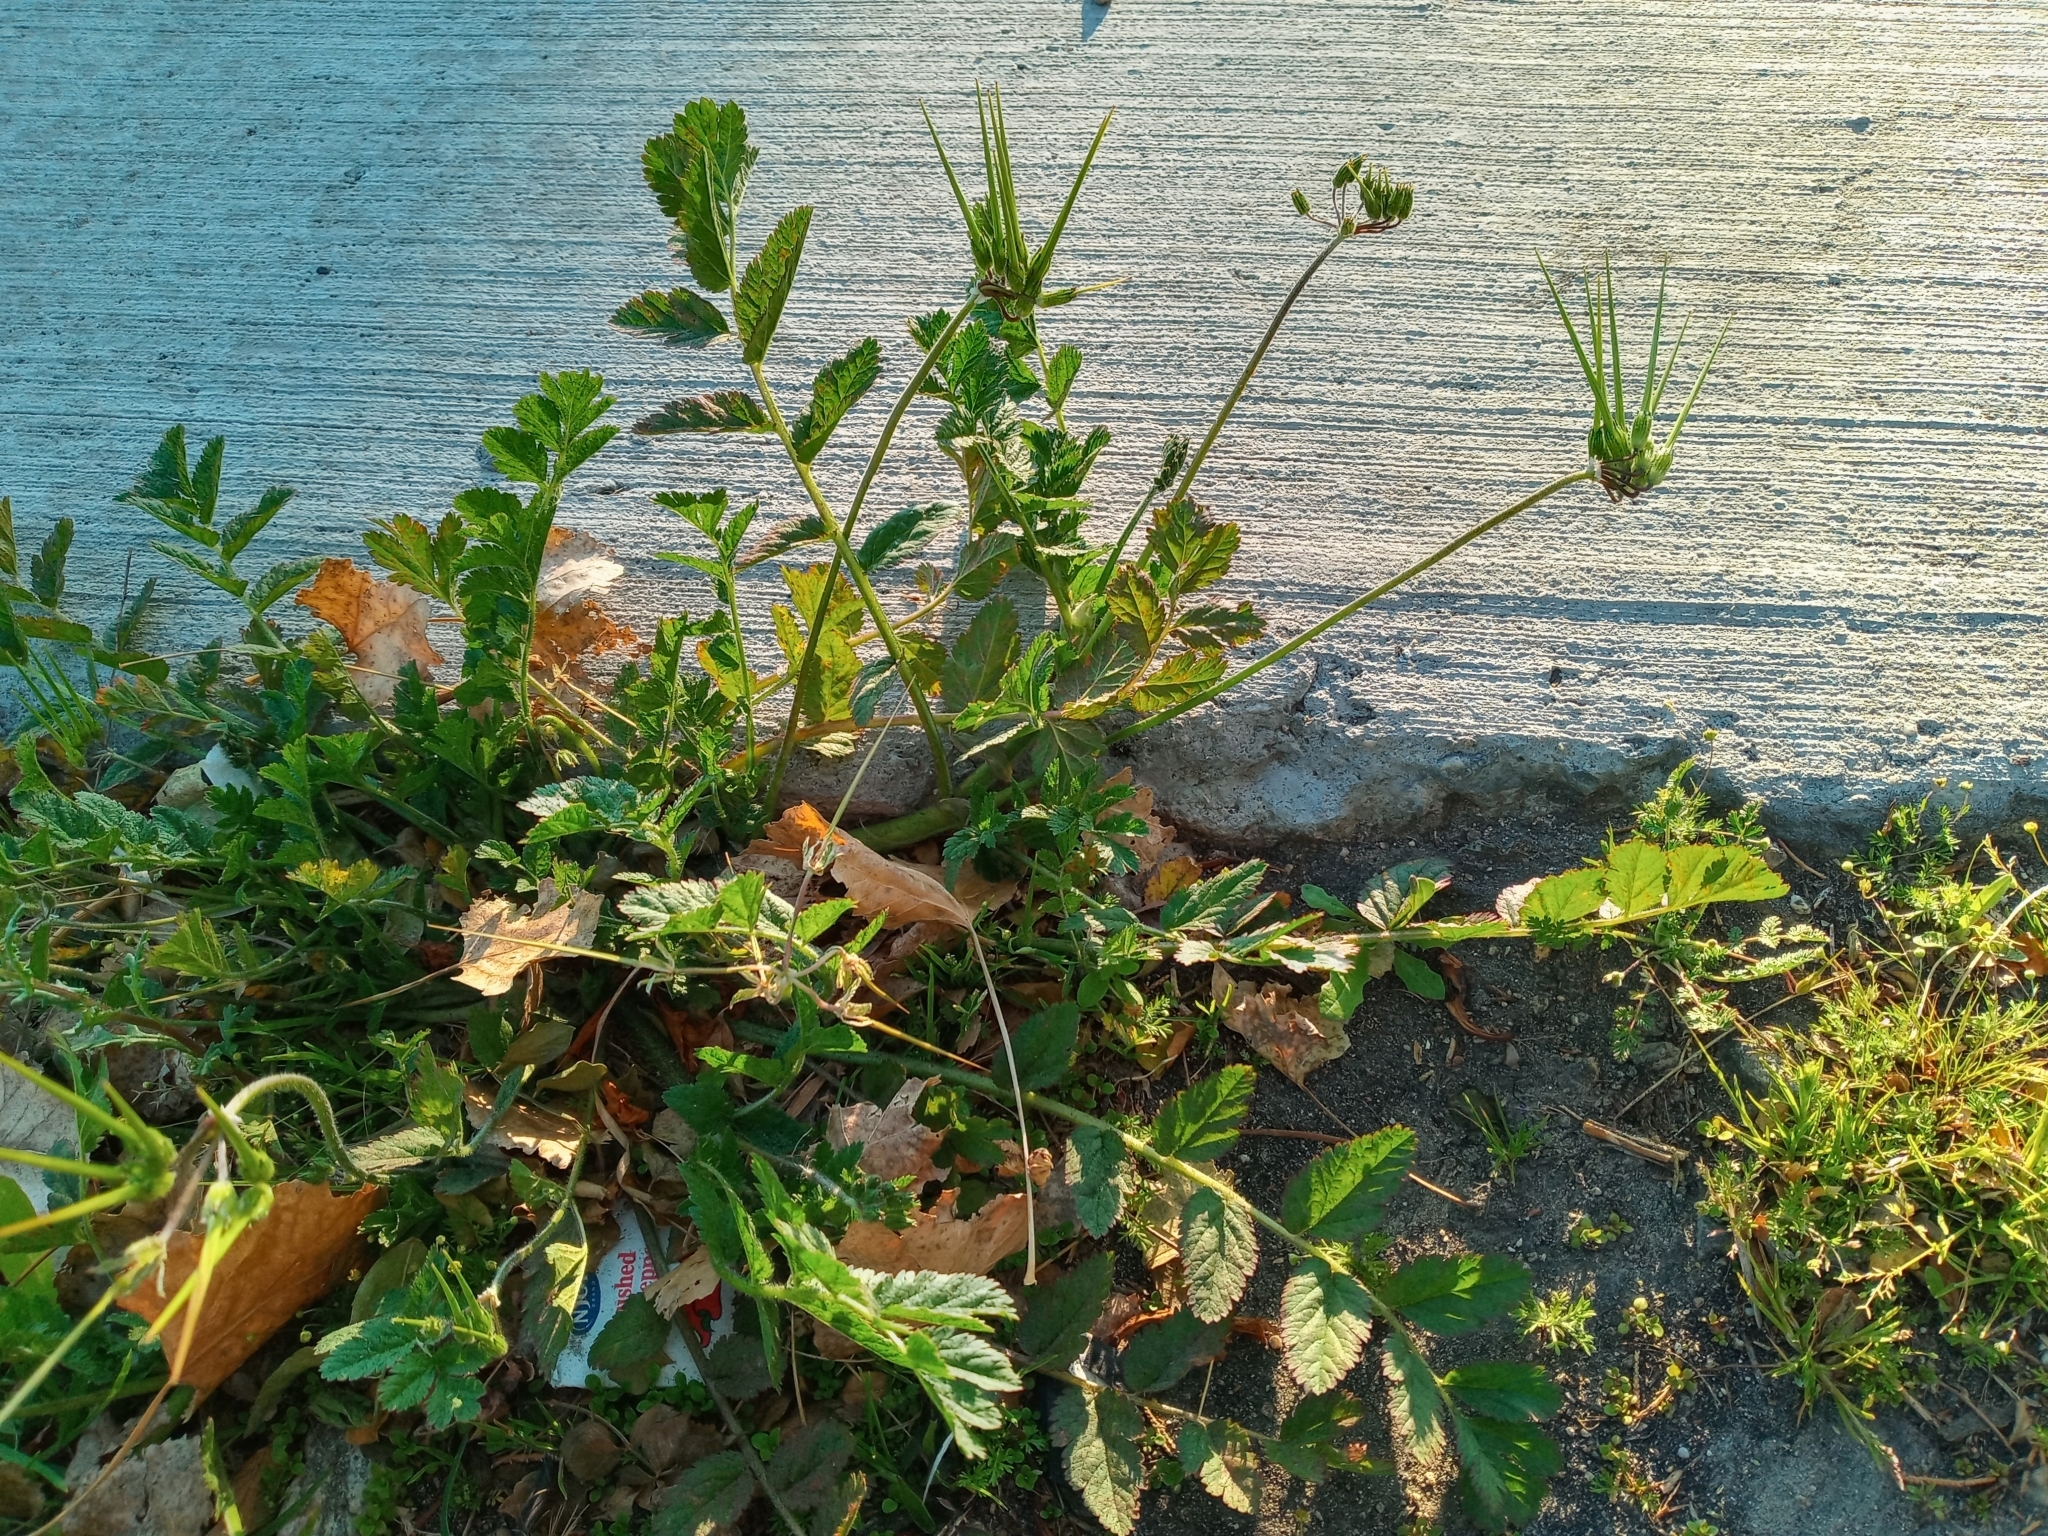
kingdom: Plantae
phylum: Tracheophyta
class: Magnoliopsida
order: Geraniales
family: Geraniaceae
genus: Erodium
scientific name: Erodium moschatum
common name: Musk stork's-bill
